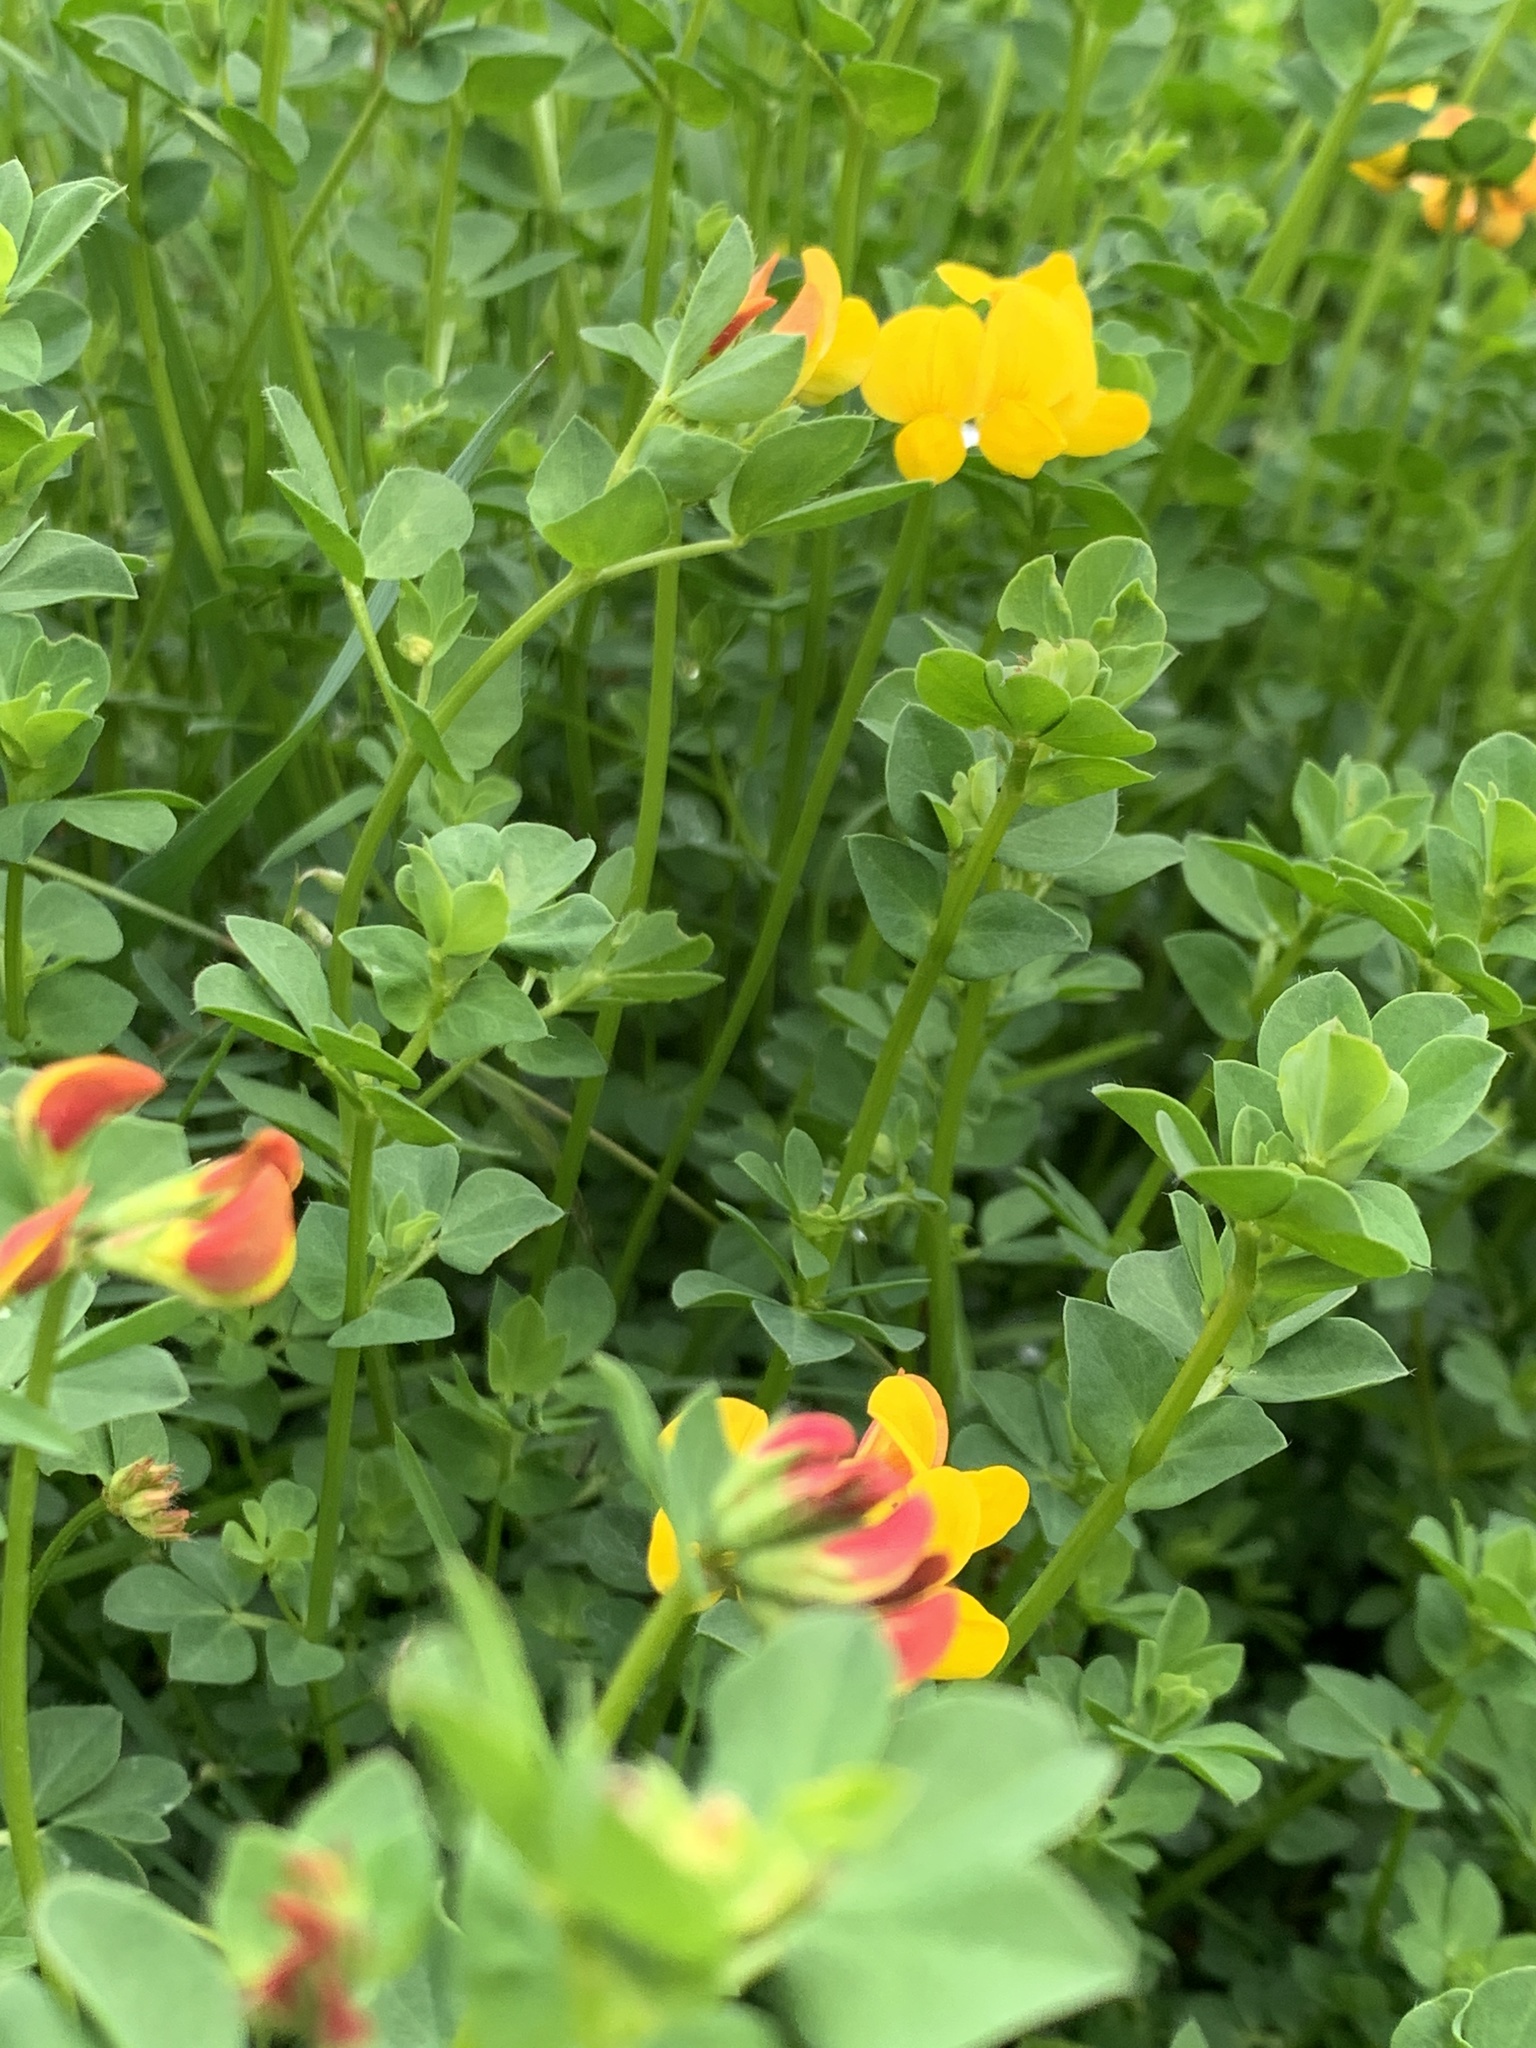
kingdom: Plantae
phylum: Tracheophyta
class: Magnoliopsida
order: Fabales
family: Fabaceae
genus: Lotus
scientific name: Lotus corniculatus
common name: Common bird's-foot-trefoil
